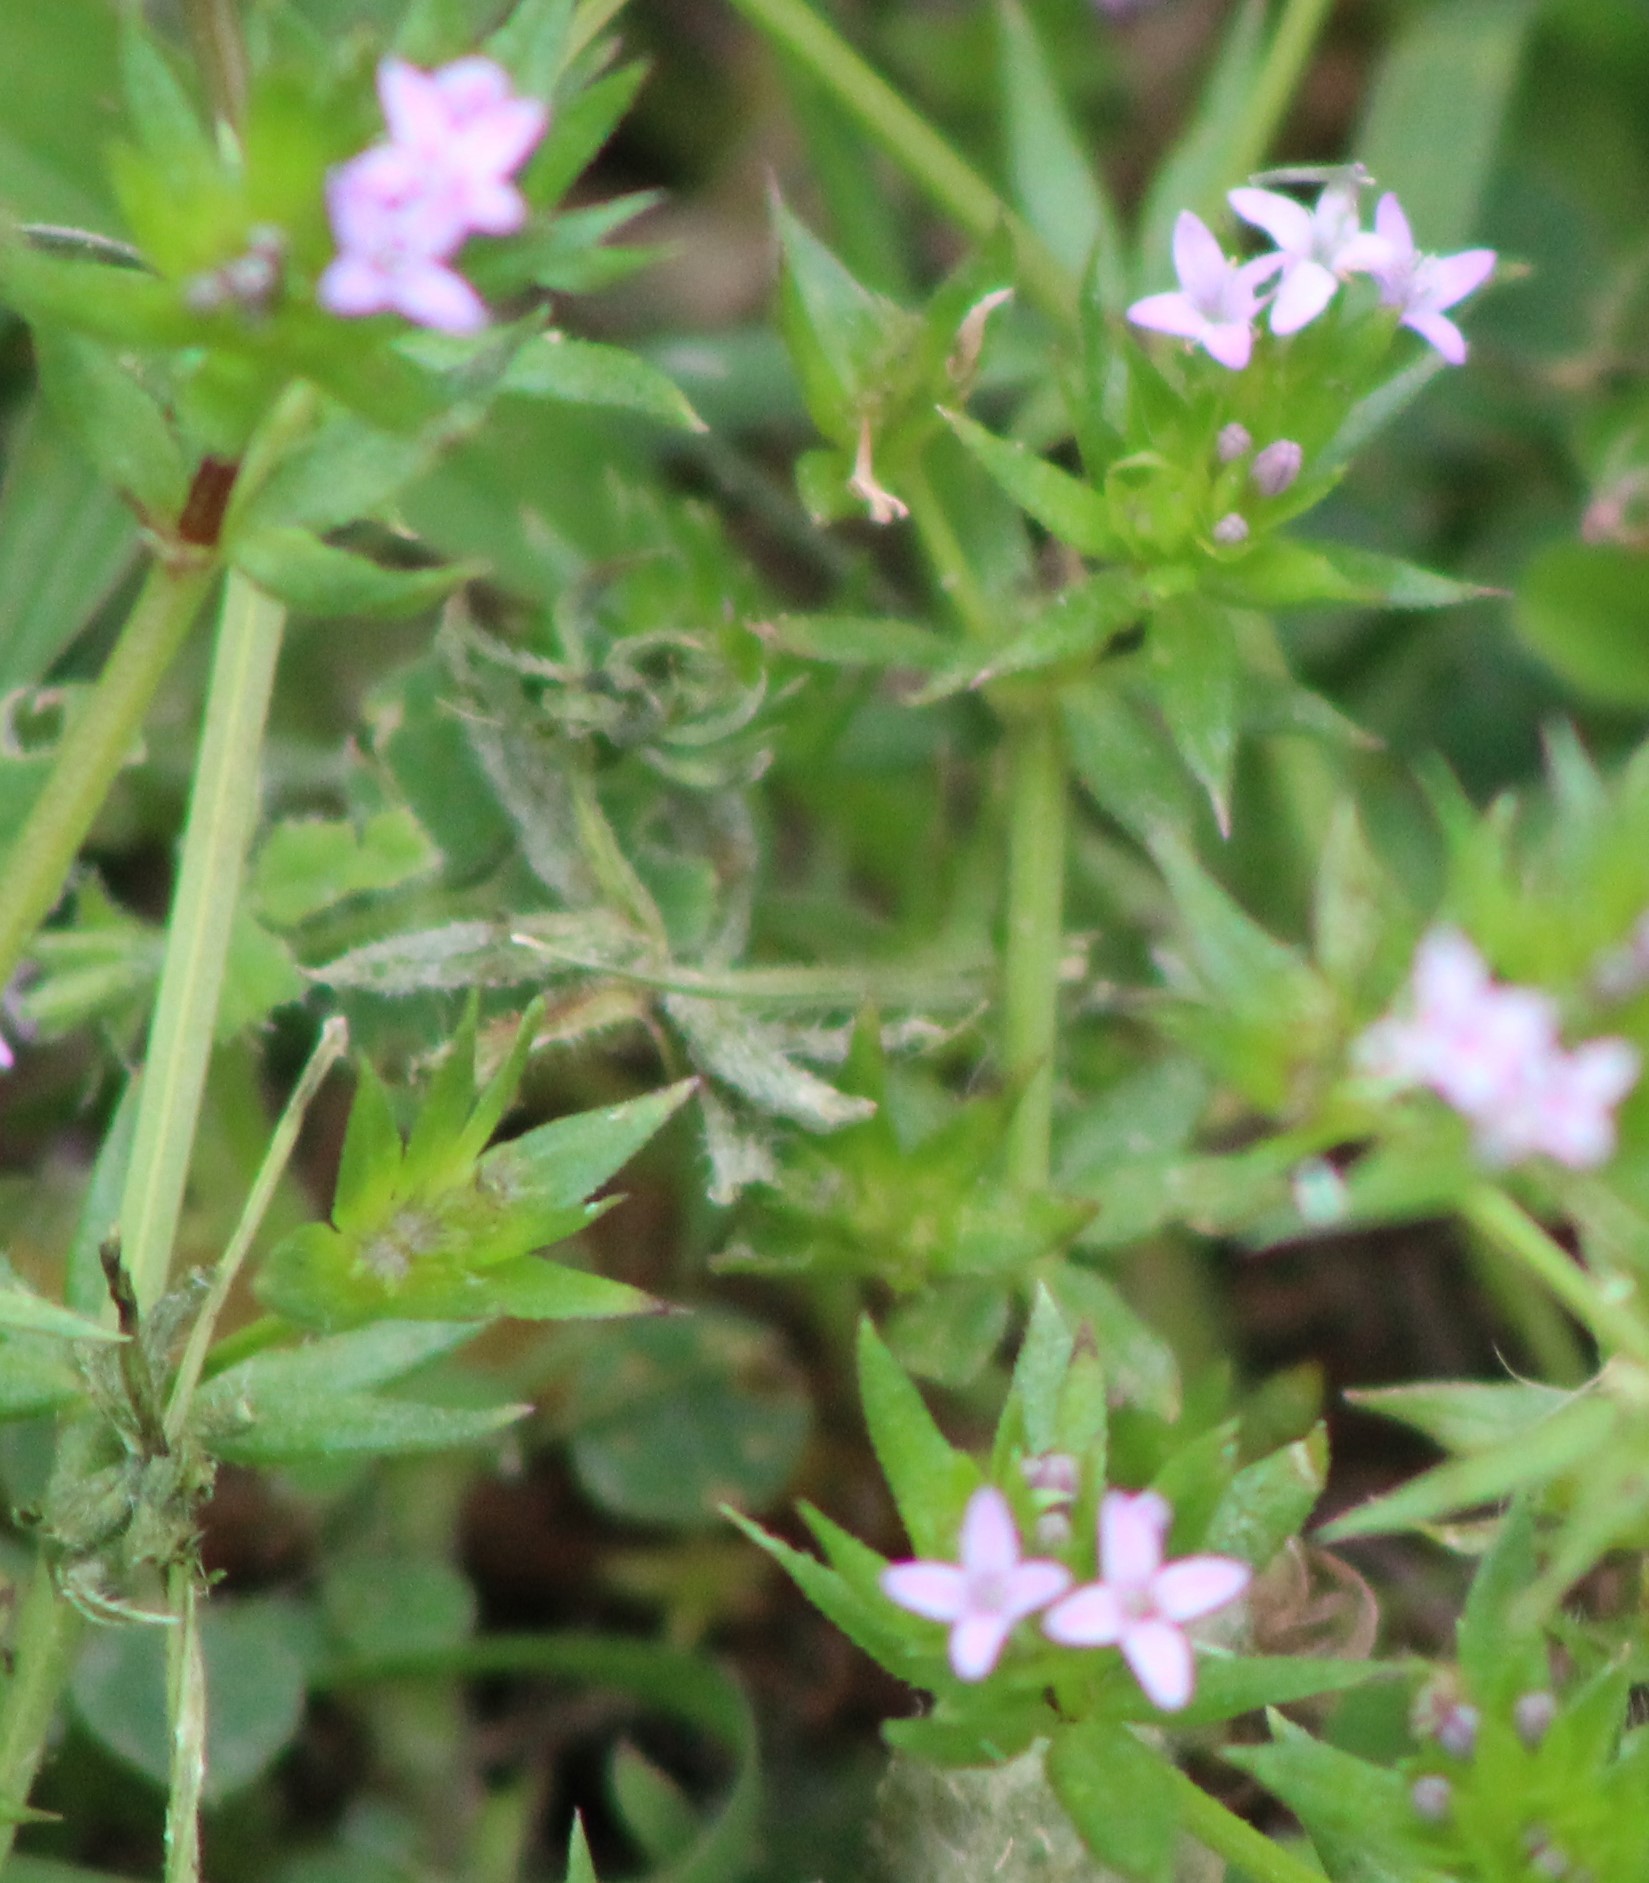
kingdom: Plantae
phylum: Tracheophyta
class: Magnoliopsida
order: Gentianales
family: Rubiaceae
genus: Sherardia
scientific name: Sherardia arvensis
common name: Field madder
